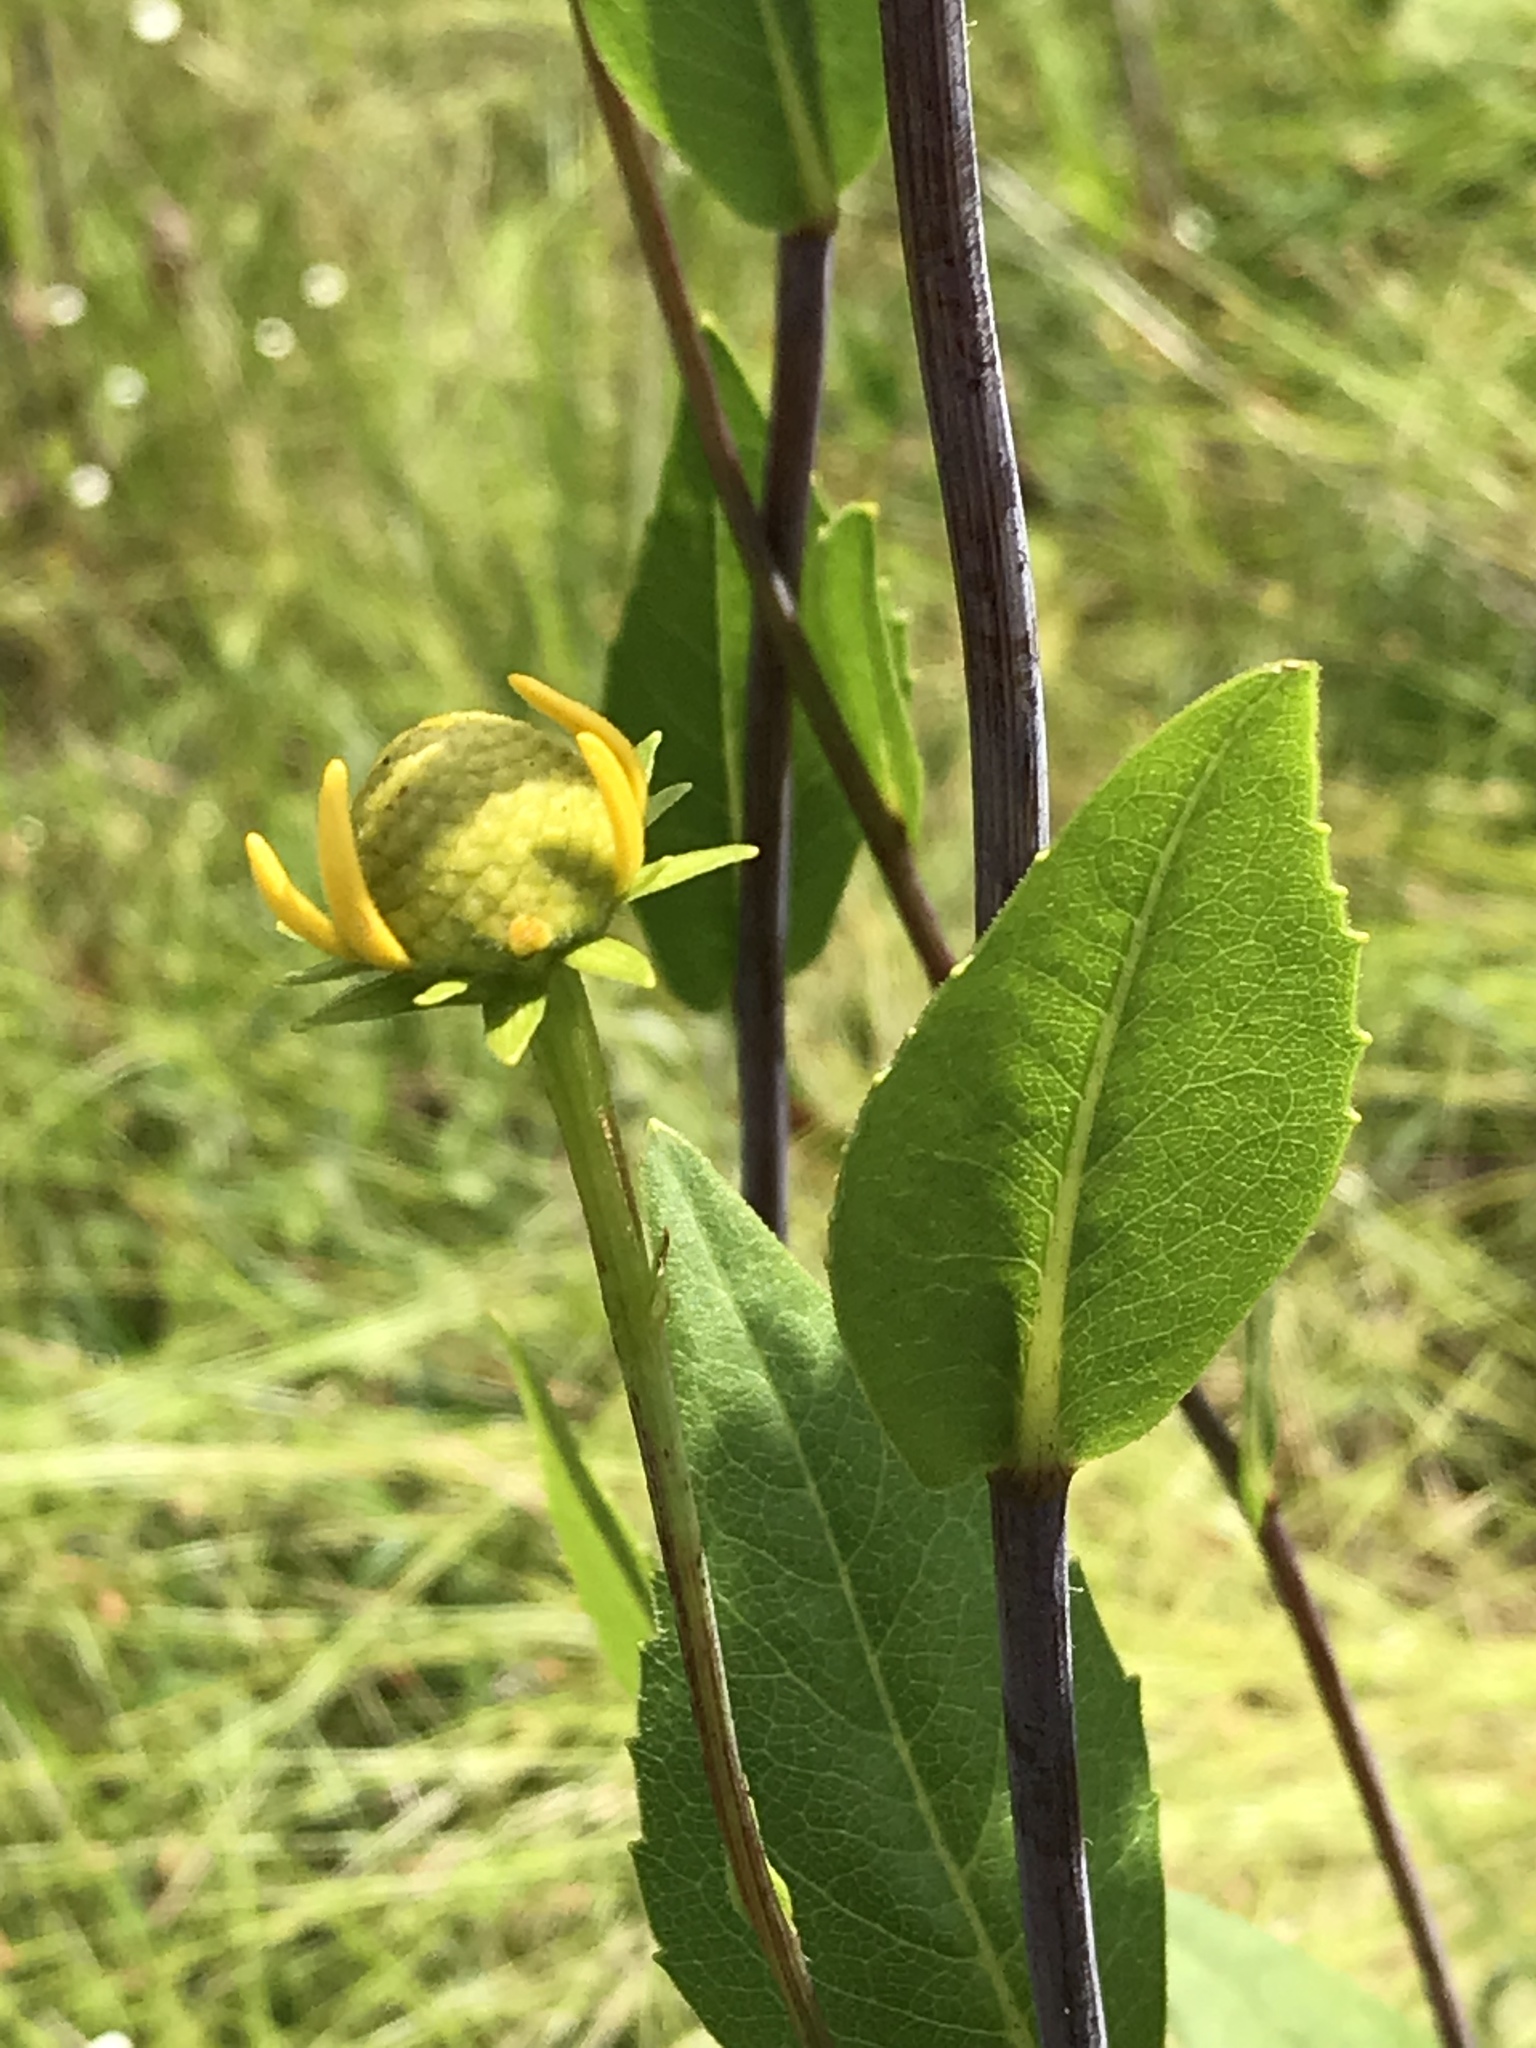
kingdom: Plantae
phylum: Tracheophyta
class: Magnoliopsida
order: Asterales
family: Asteraceae
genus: Rudbeckia
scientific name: Rudbeckia scabrifolia
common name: Rough-leaf coneflower
